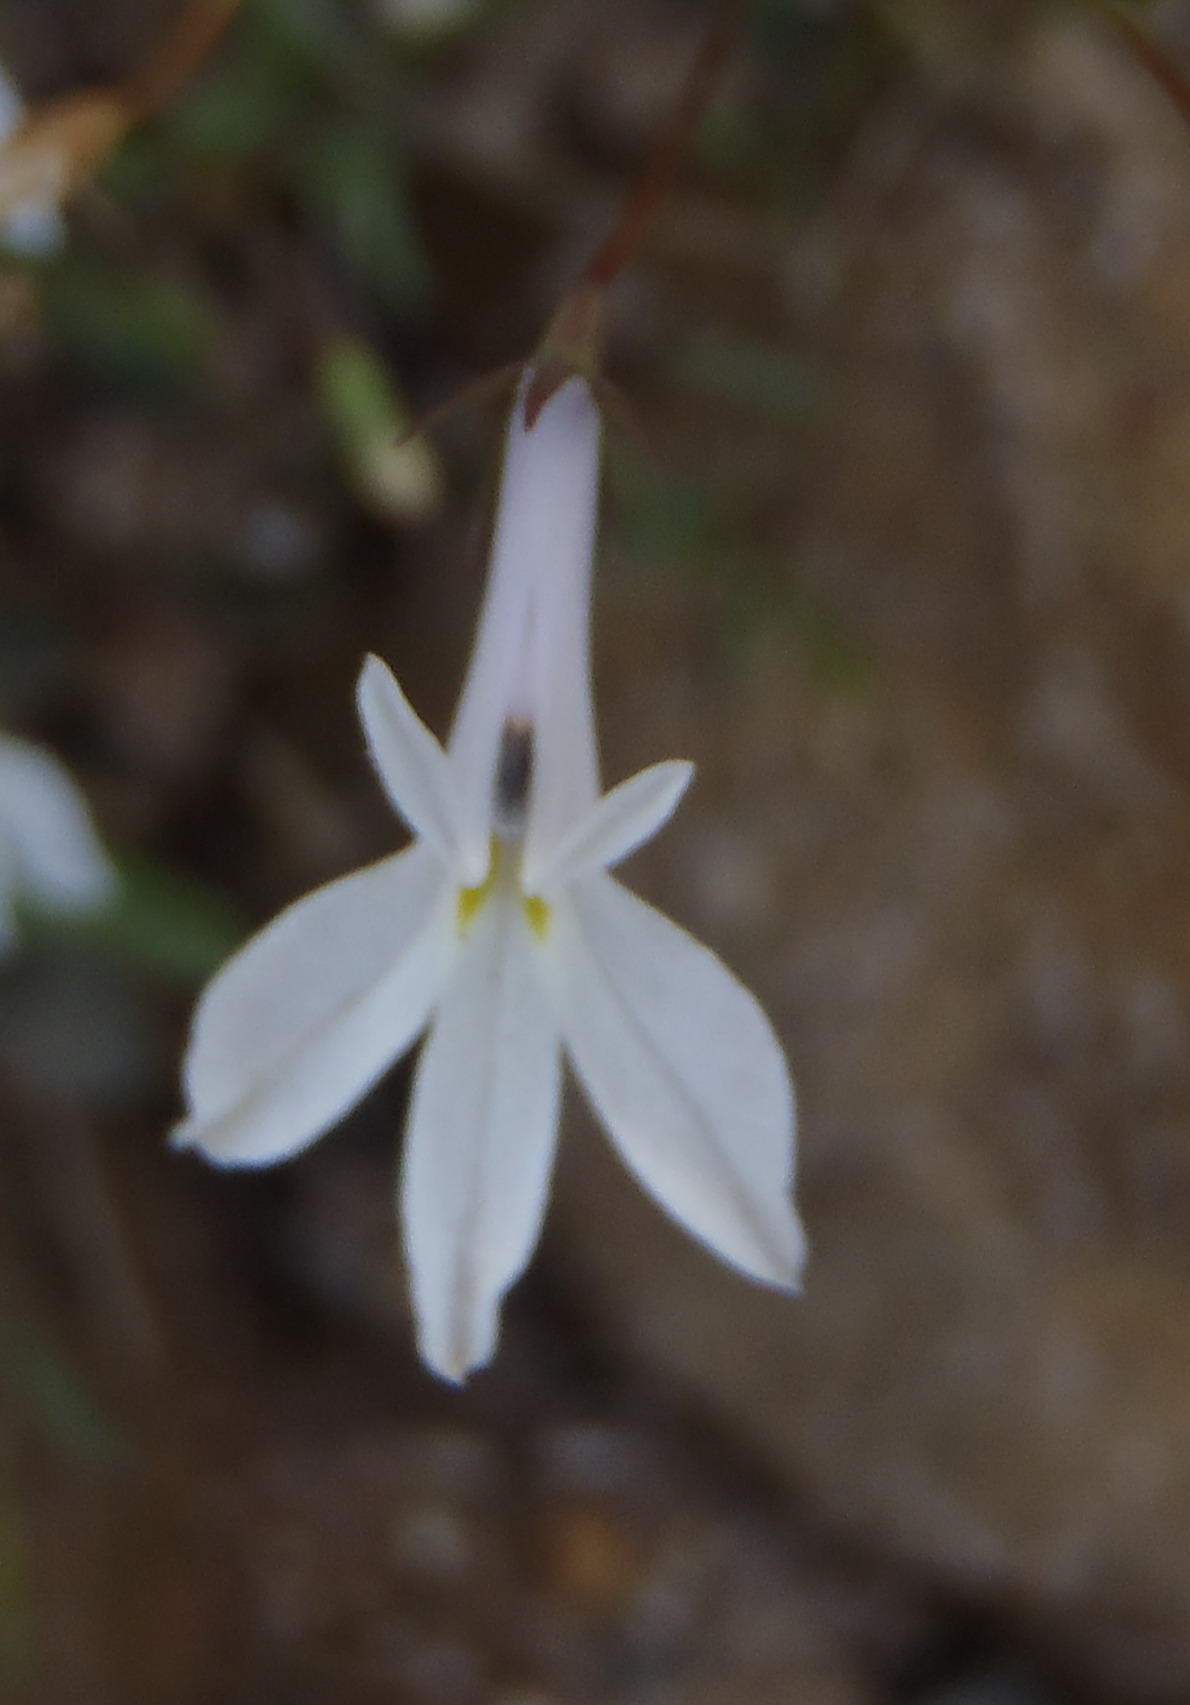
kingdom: Plantae
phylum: Tracheophyta
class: Magnoliopsida
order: Asterales
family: Campanulaceae
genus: Lobelia
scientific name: Lobelia pubescens
